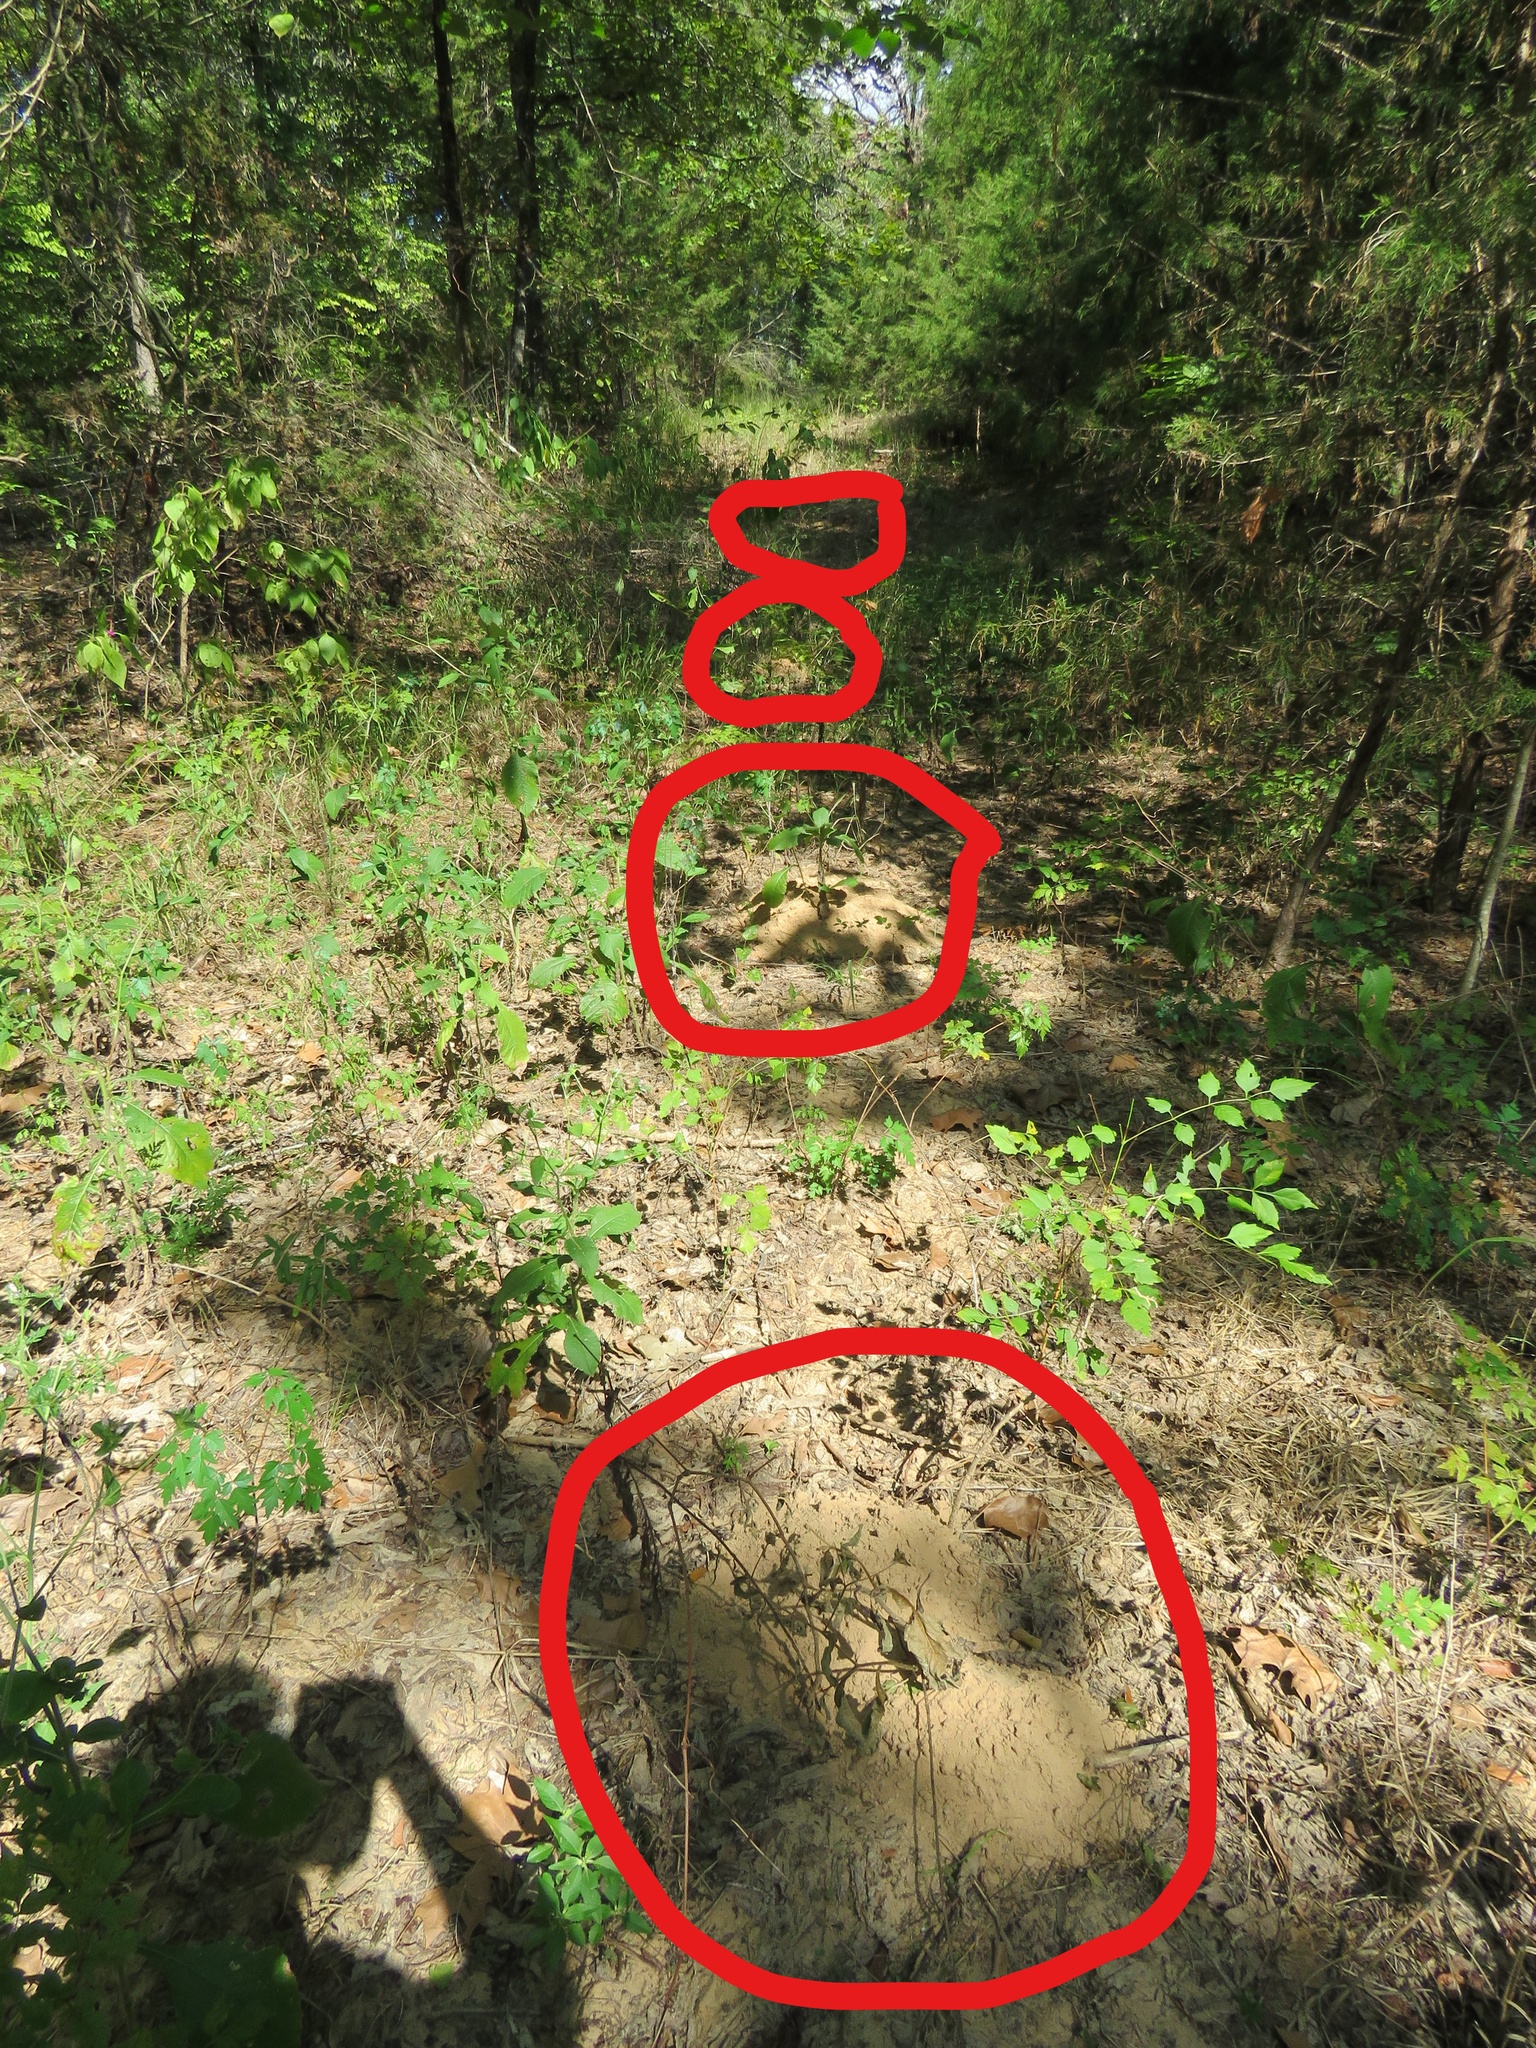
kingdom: Animalia
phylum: Chordata
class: Mammalia
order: Rodentia
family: Geomyidae
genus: Geomys
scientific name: Geomys breviceps
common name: Baird's pocket gopher
